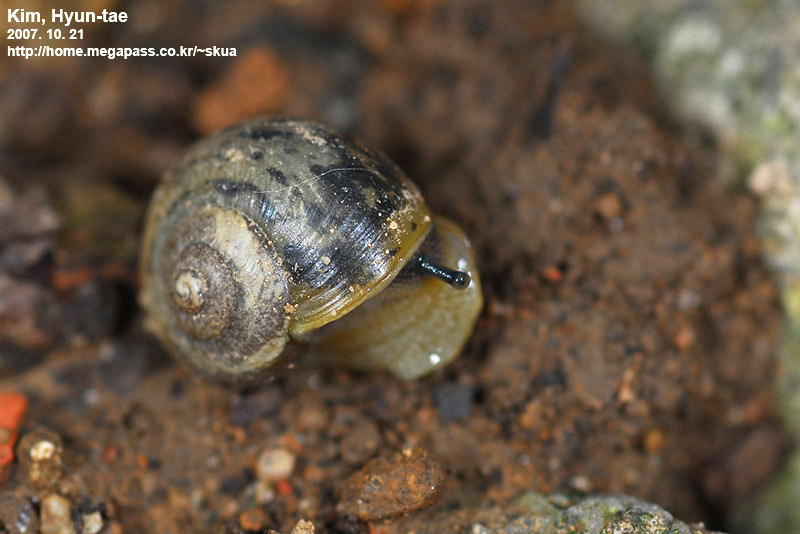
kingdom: Animalia
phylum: Mollusca
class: Gastropoda
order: Stylommatophora
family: Camaenidae
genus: Acusta
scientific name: Acusta redfieldi
